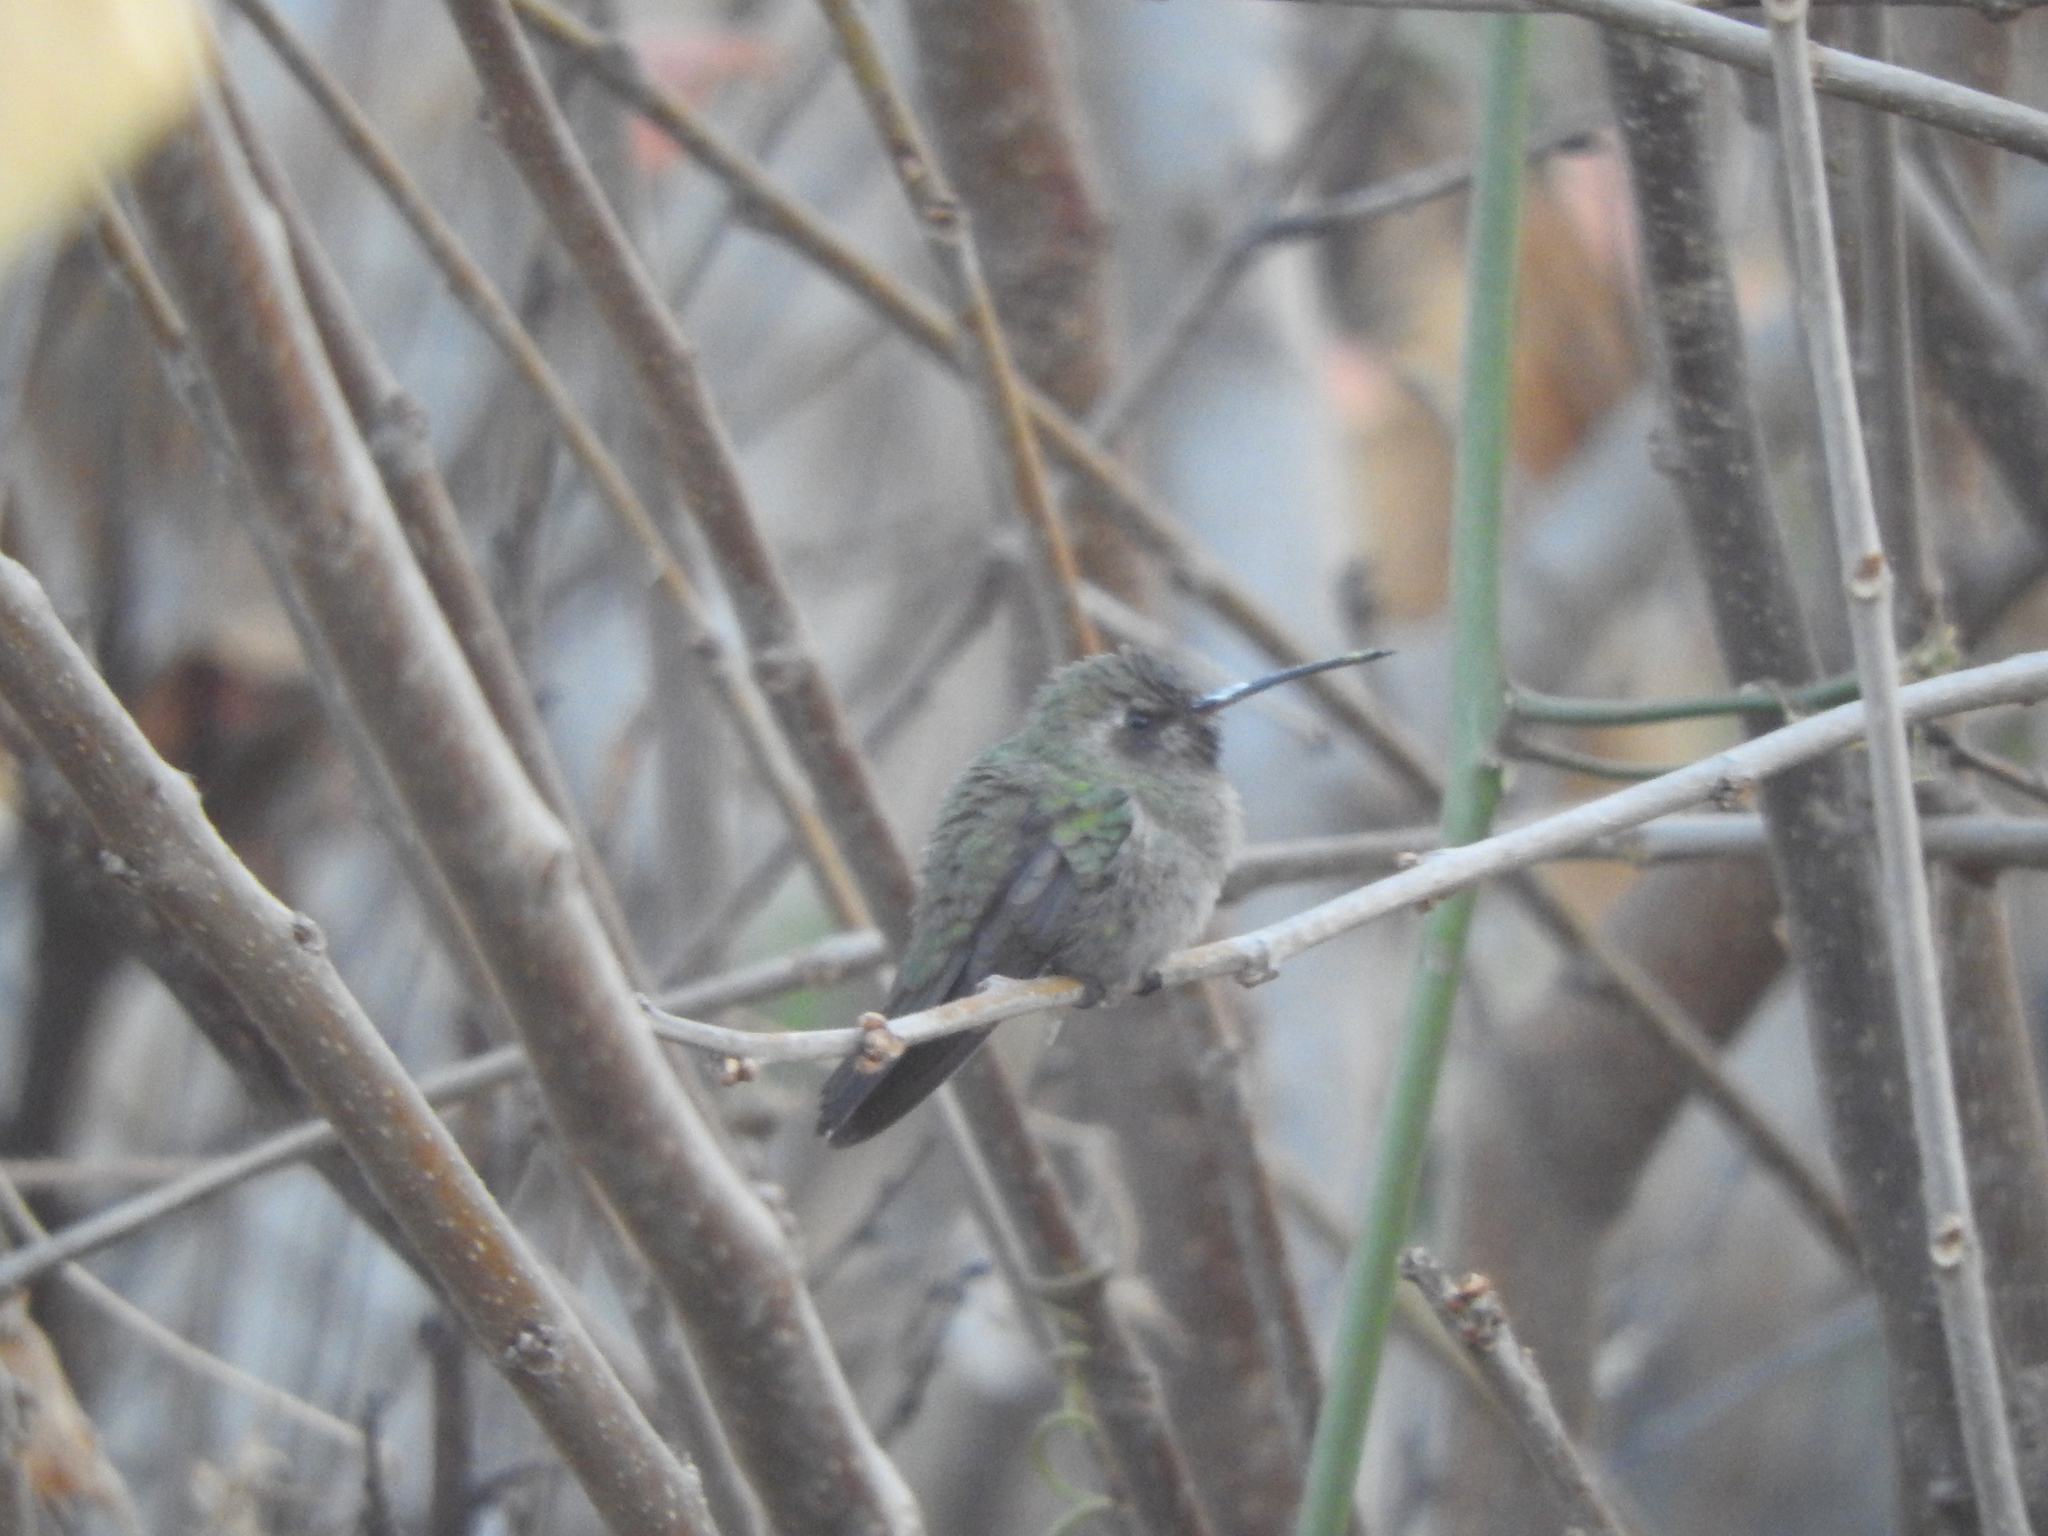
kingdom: Animalia
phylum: Chordata
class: Aves
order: Apodiformes
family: Trochilidae
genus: Cynanthus
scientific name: Cynanthus latirostris
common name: Broad-billed hummingbird
